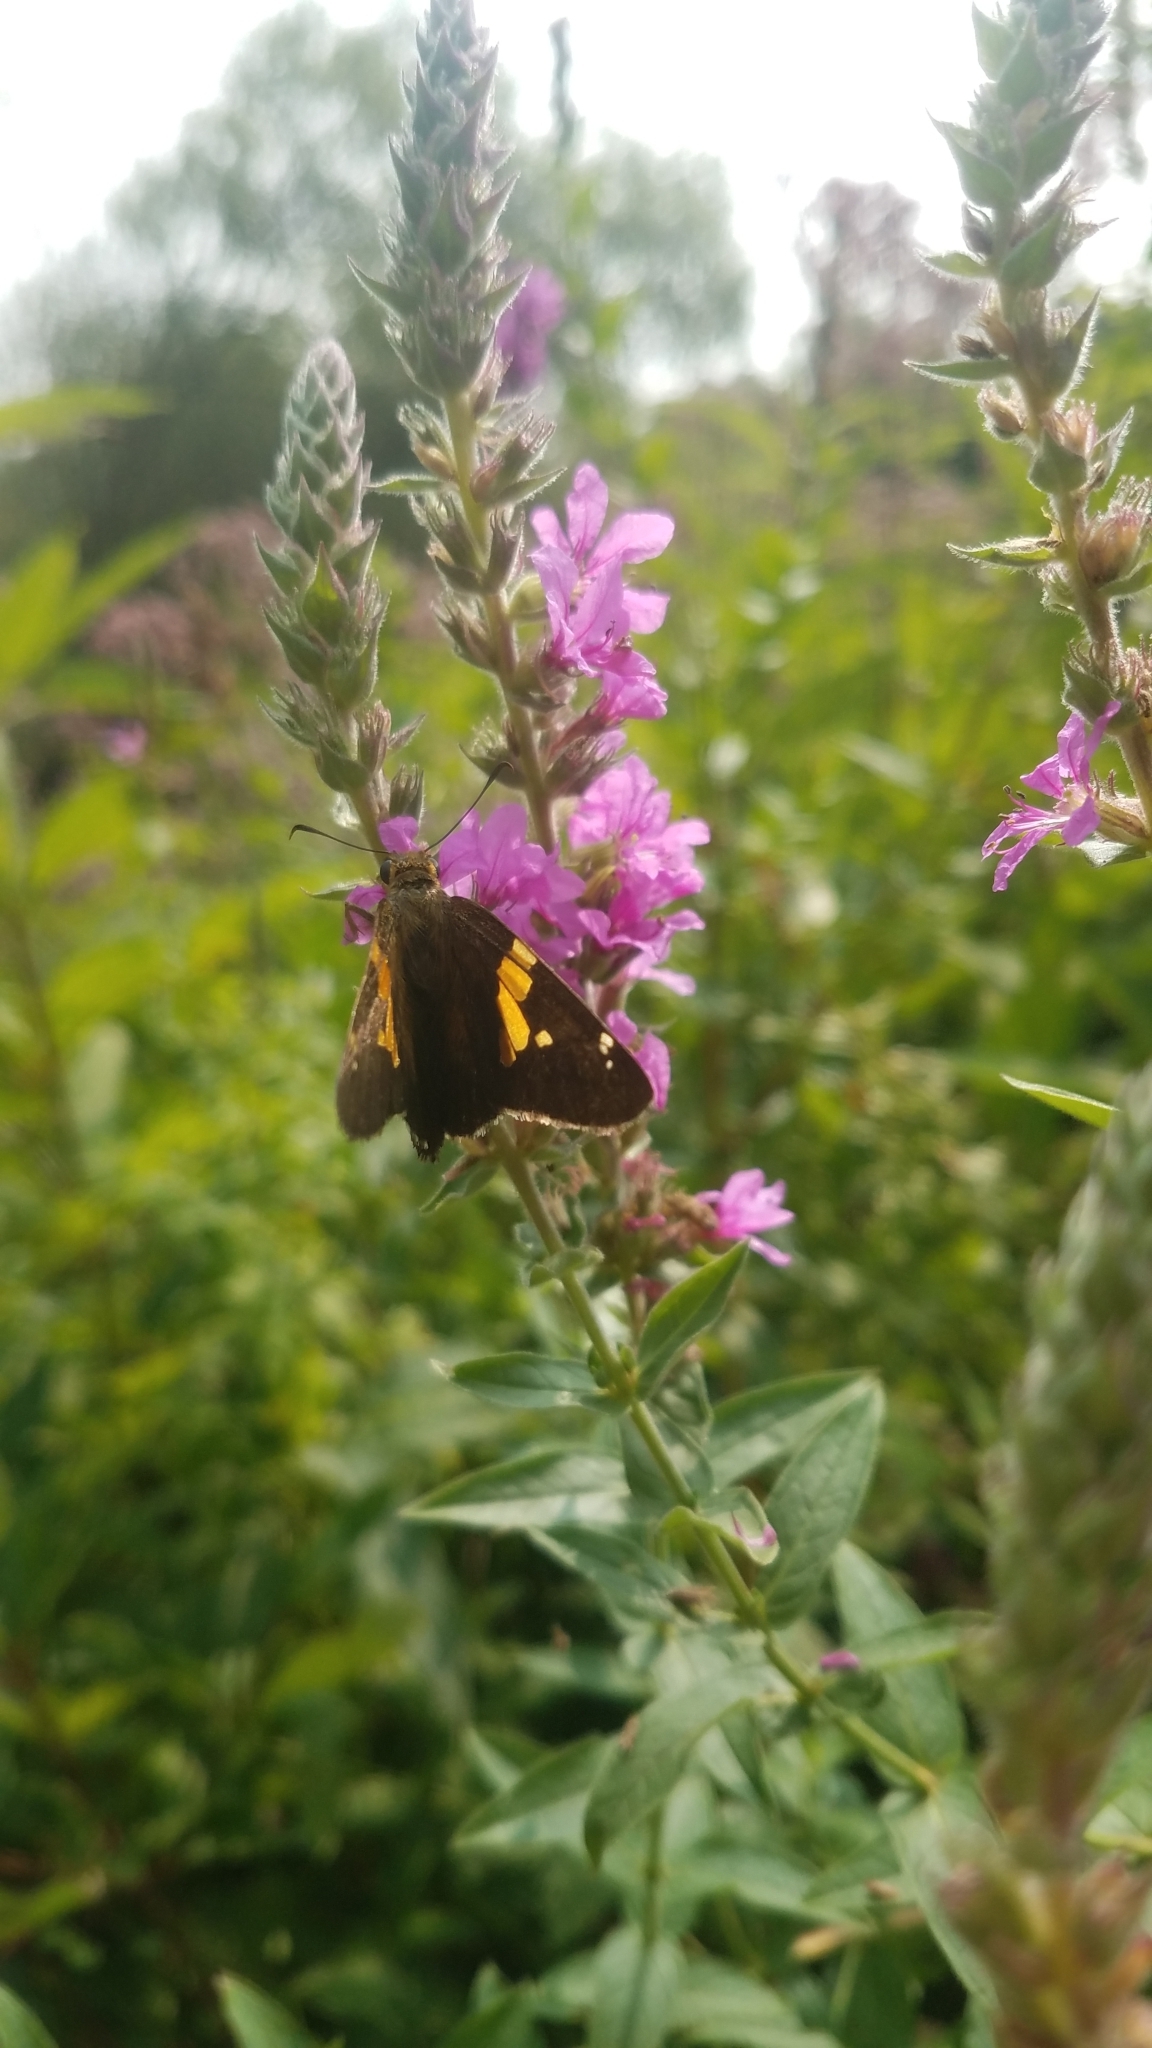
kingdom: Animalia
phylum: Arthropoda
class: Insecta
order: Lepidoptera
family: Hesperiidae
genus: Epargyreus
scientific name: Epargyreus clarus
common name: Silver-spotted skipper
